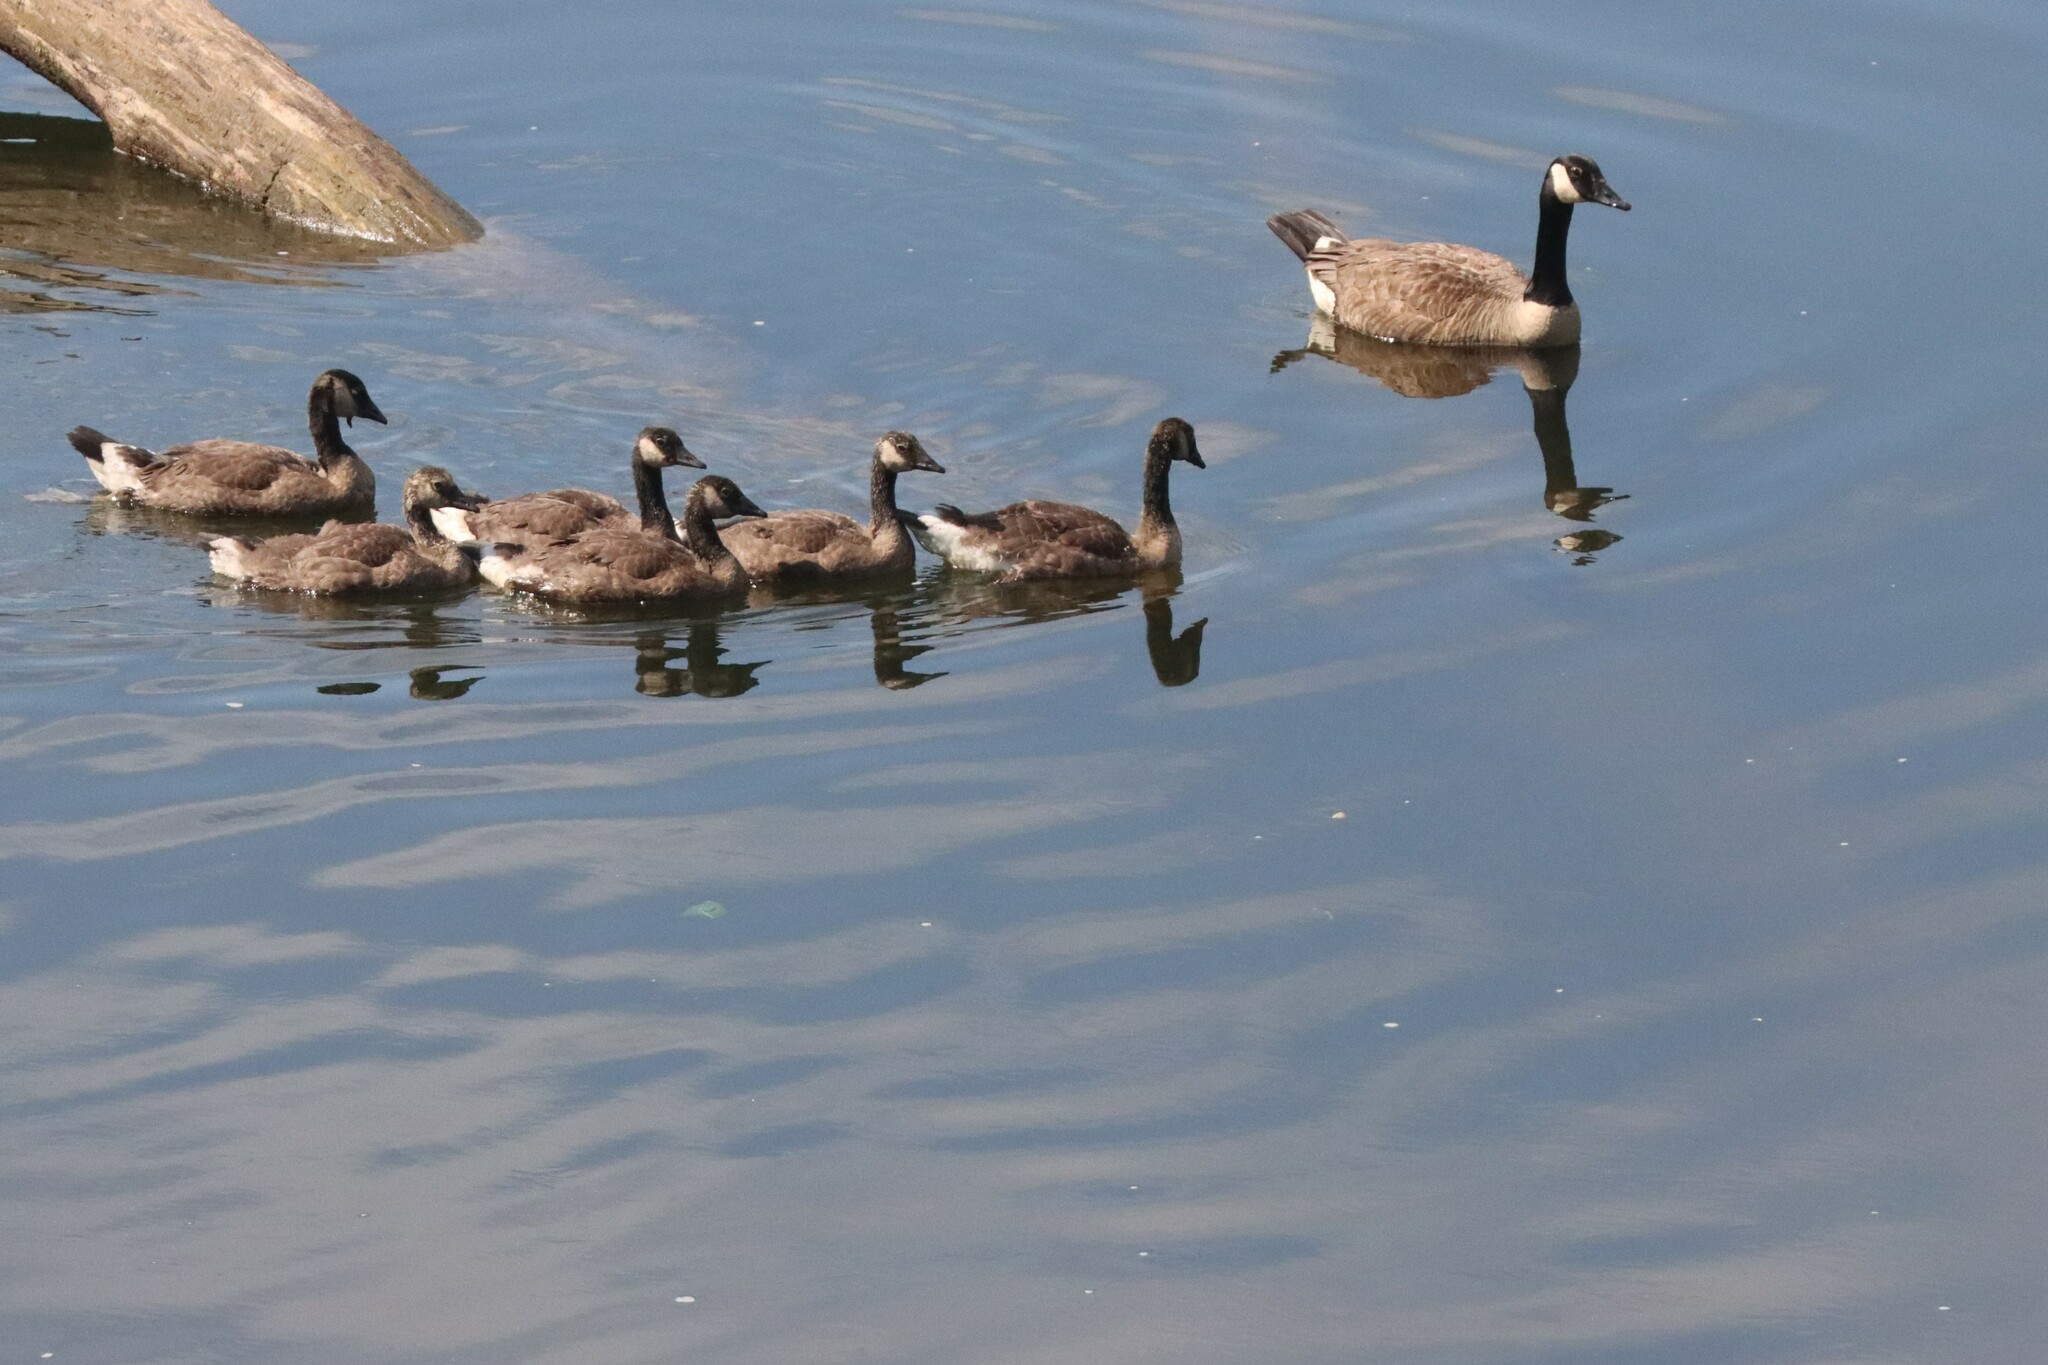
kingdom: Animalia
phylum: Chordata
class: Aves
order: Anseriformes
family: Anatidae
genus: Branta
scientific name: Branta canadensis
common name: Canada goose
